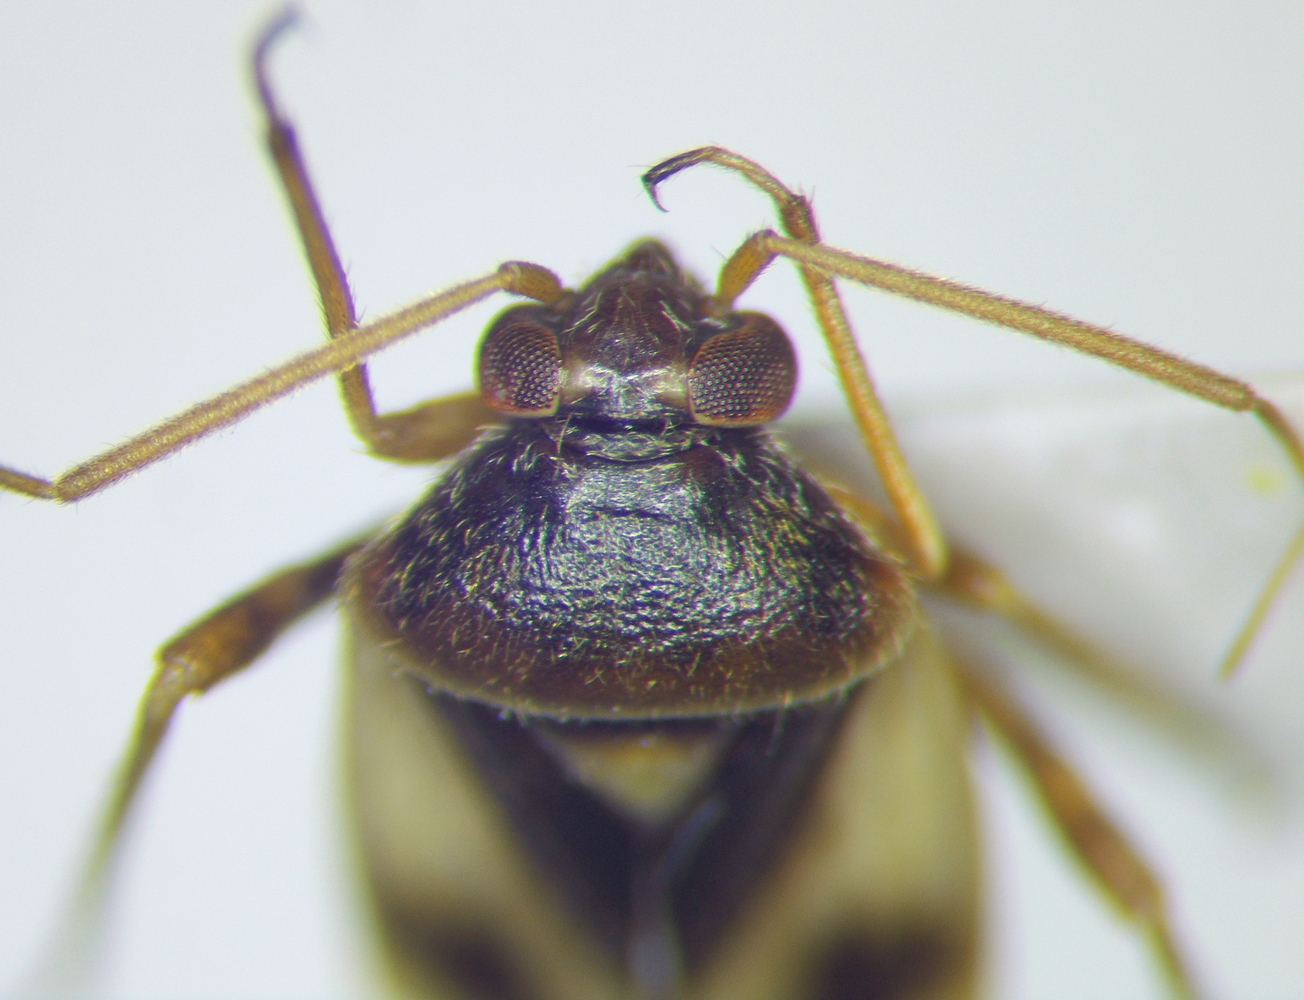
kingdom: Animalia
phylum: Arthropoda
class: Insecta
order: Hemiptera
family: Miridae
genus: Polymerus
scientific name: Polymerus brevicornis
